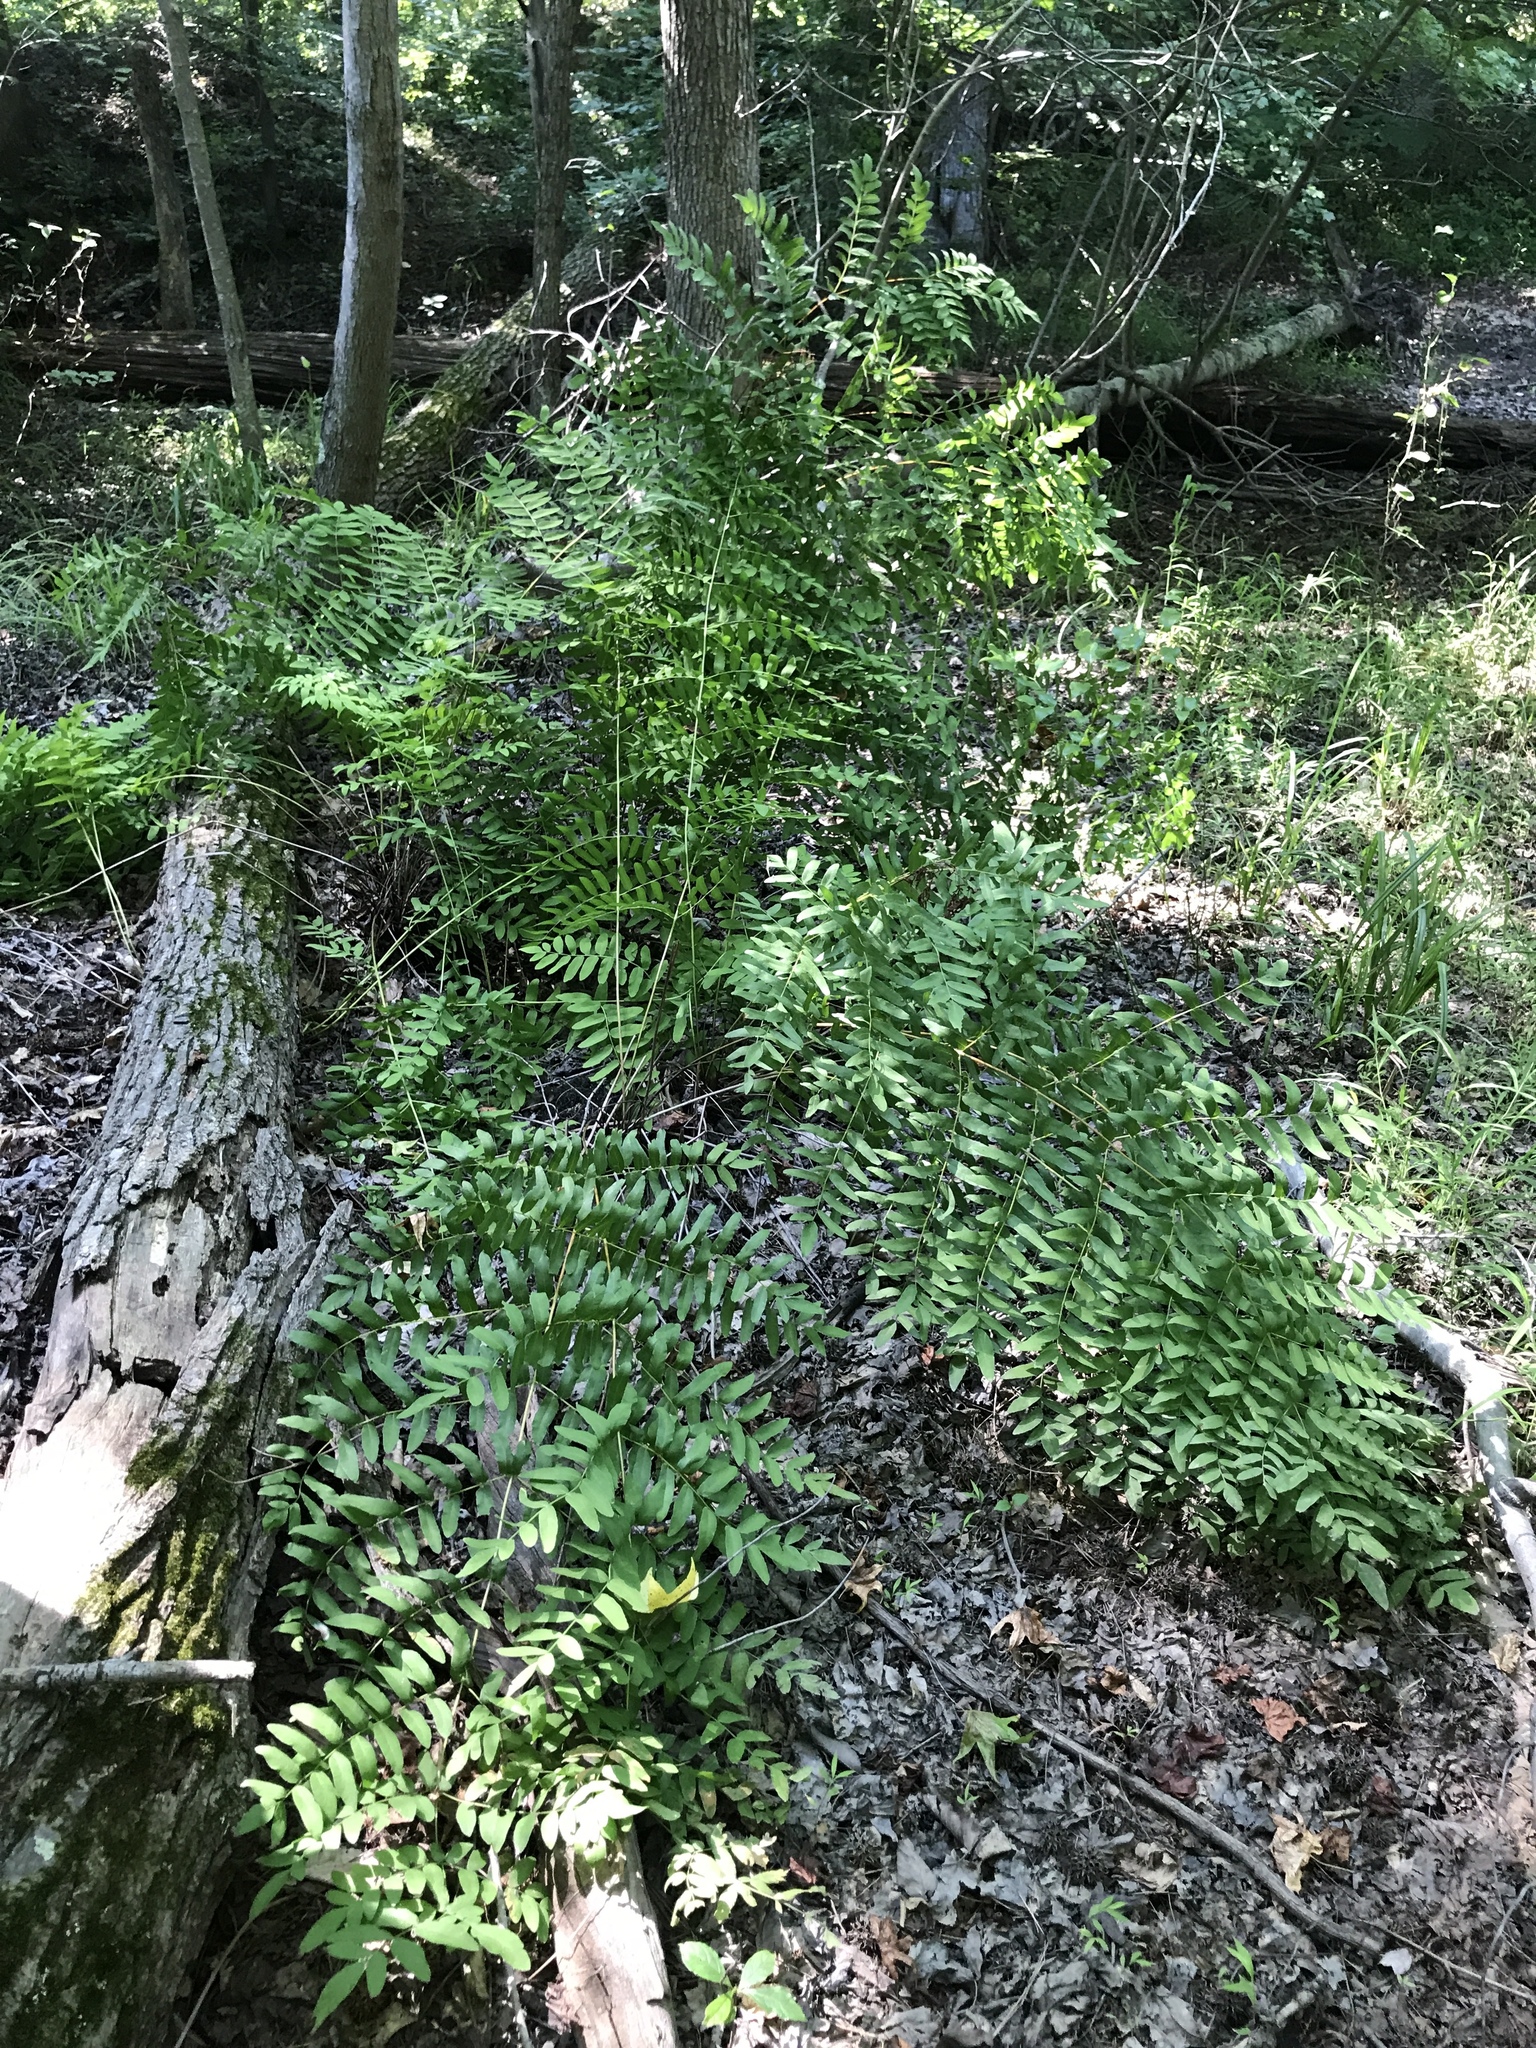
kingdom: Plantae
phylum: Tracheophyta
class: Polypodiopsida
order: Osmundales
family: Osmundaceae
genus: Osmunda
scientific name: Osmunda spectabilis
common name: American royal fern
